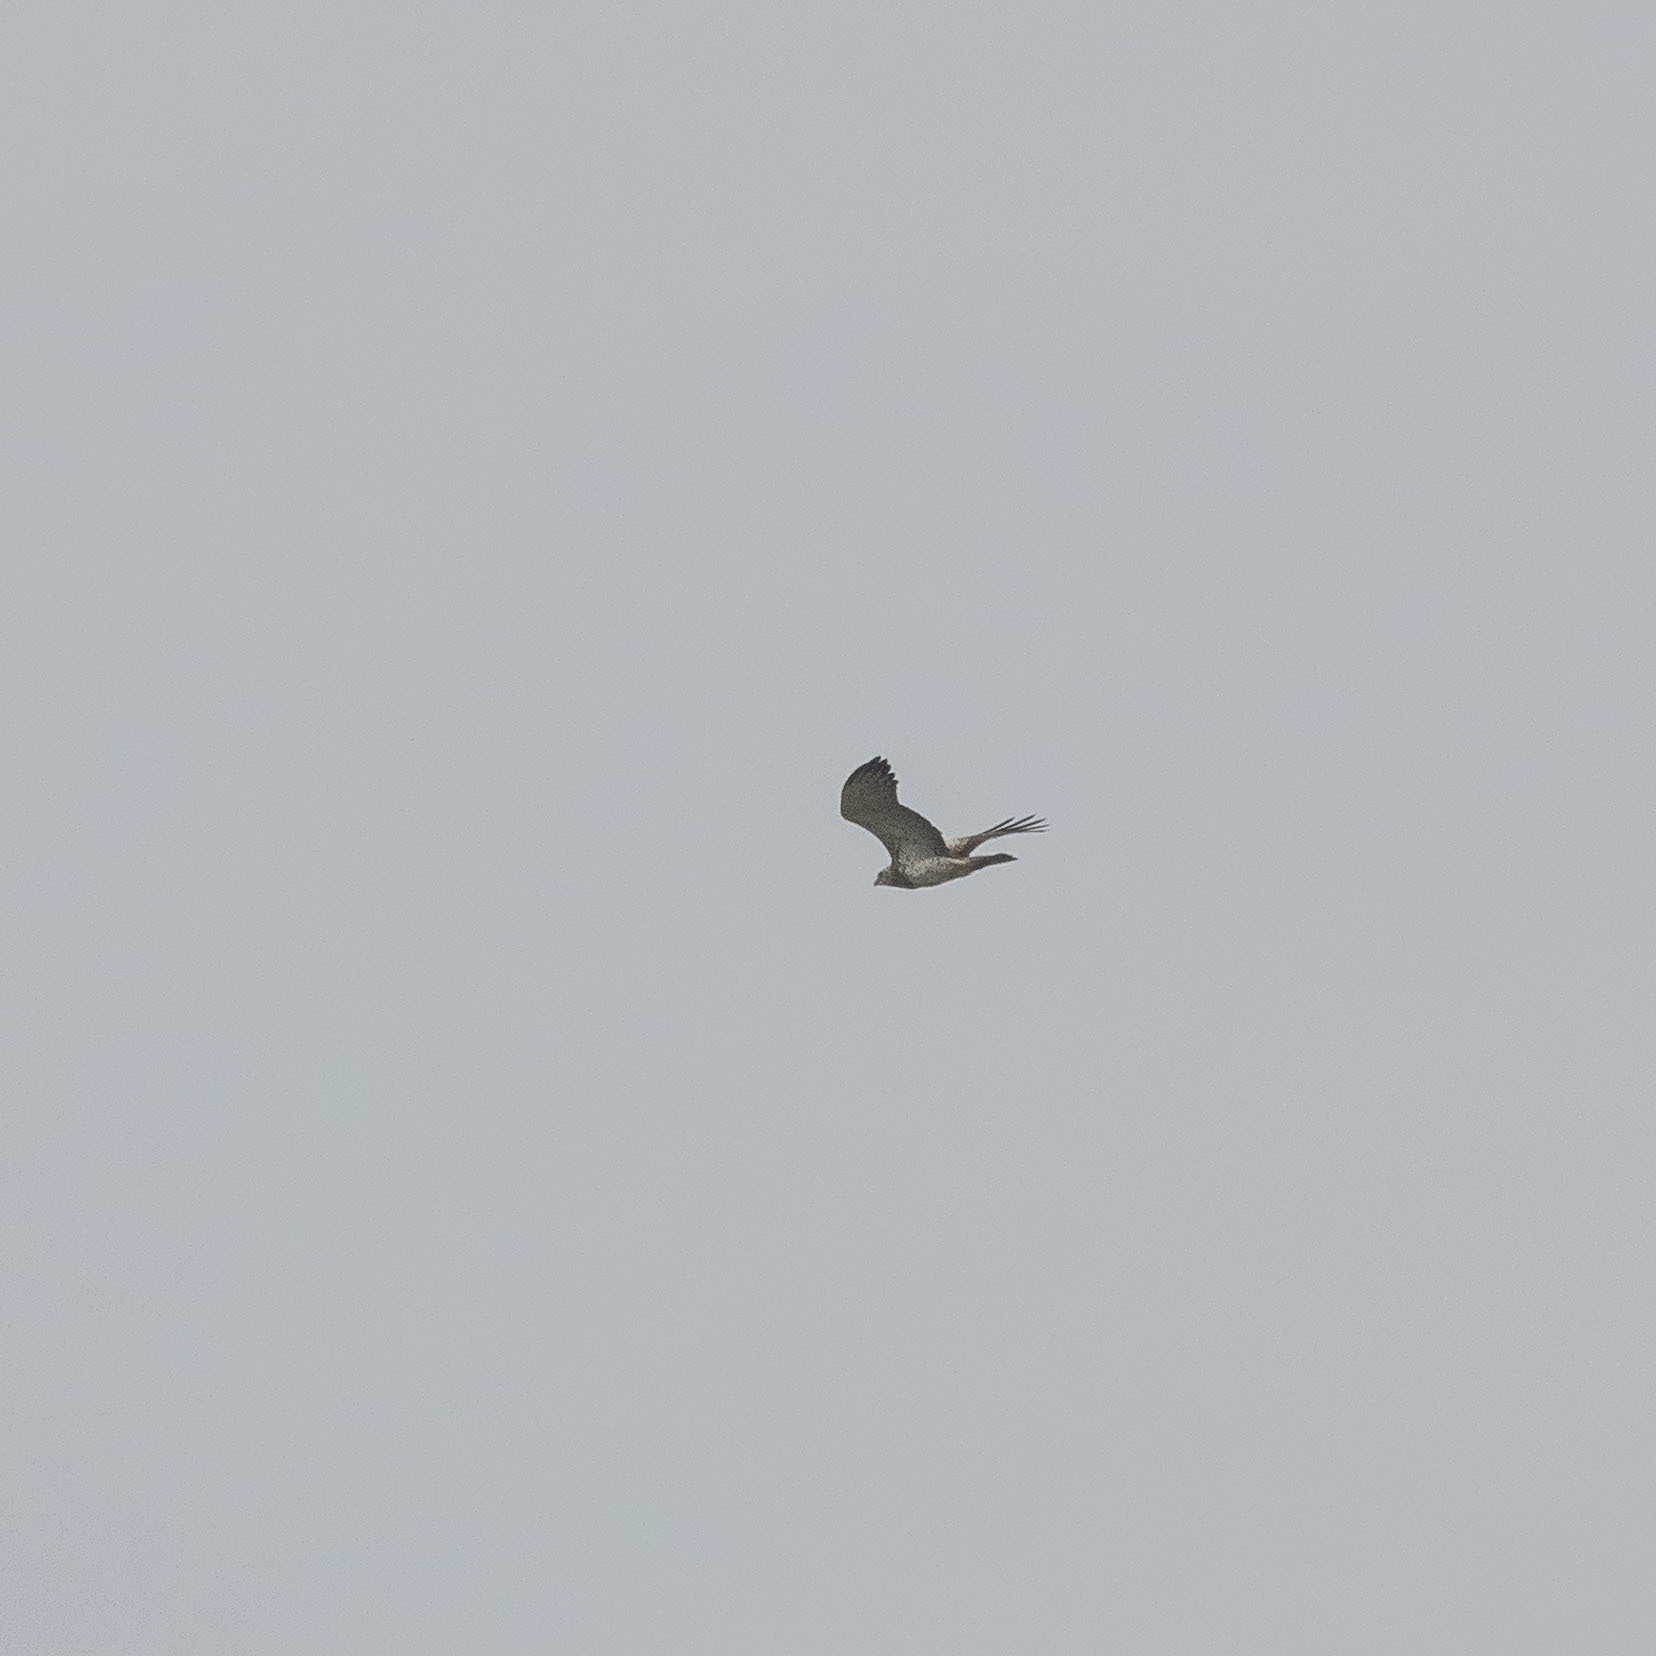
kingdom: Animalia
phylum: Chordata
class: Aves
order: Accipitriformes
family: Accipitridae
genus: Circaetus
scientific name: Circaetus gallicus
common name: Short-toed snake eagle
